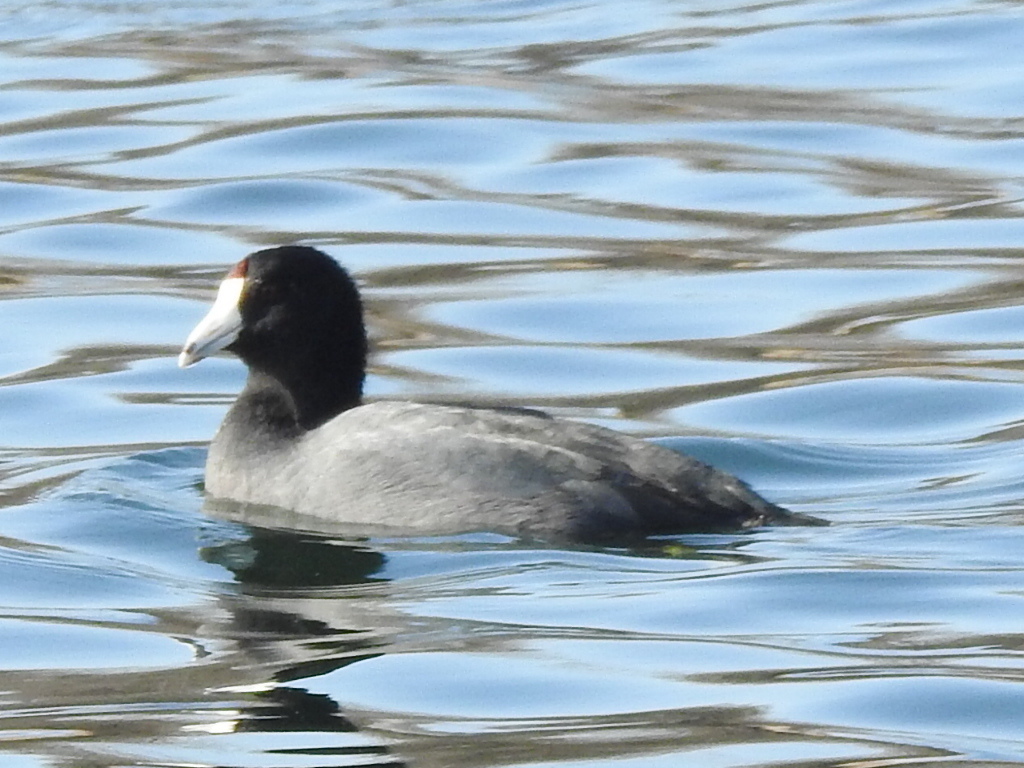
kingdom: Animalia
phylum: Chordata
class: Aves
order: Gruiformes
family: Rallidae
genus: Fulica
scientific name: Fulica americana
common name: American coot
